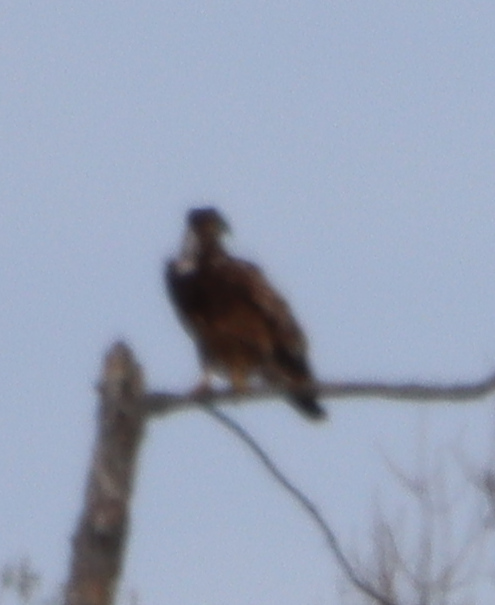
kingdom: Animalia
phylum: Chordata
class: Aves
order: Accipitriformes
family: Accipitridae
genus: Haliaeetus
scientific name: Haliaeetus leucocephalus
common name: Bald eagle
